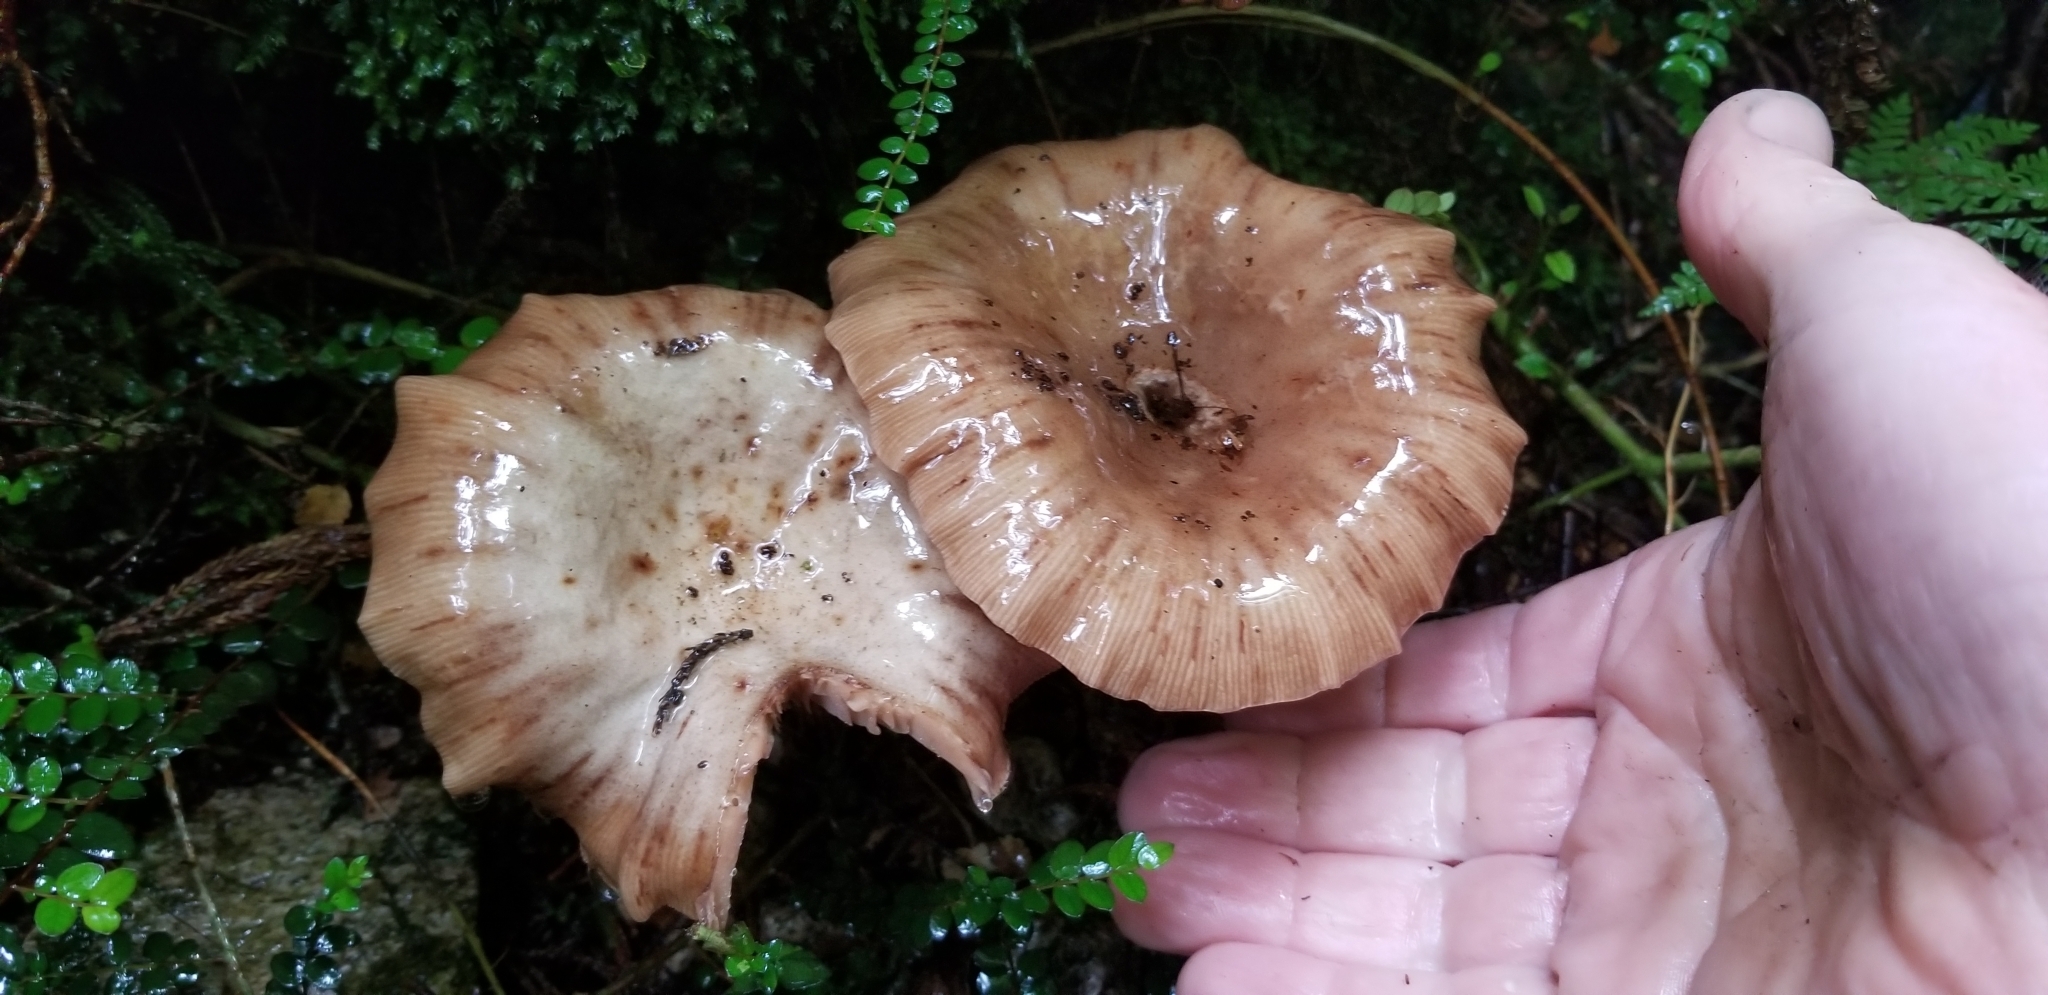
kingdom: Fungi
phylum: Basidiomycota
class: Agaricomycetes
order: Agaricales
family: Physalacriaceae
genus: Armillaria
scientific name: Armillaria novae-zelandiae
